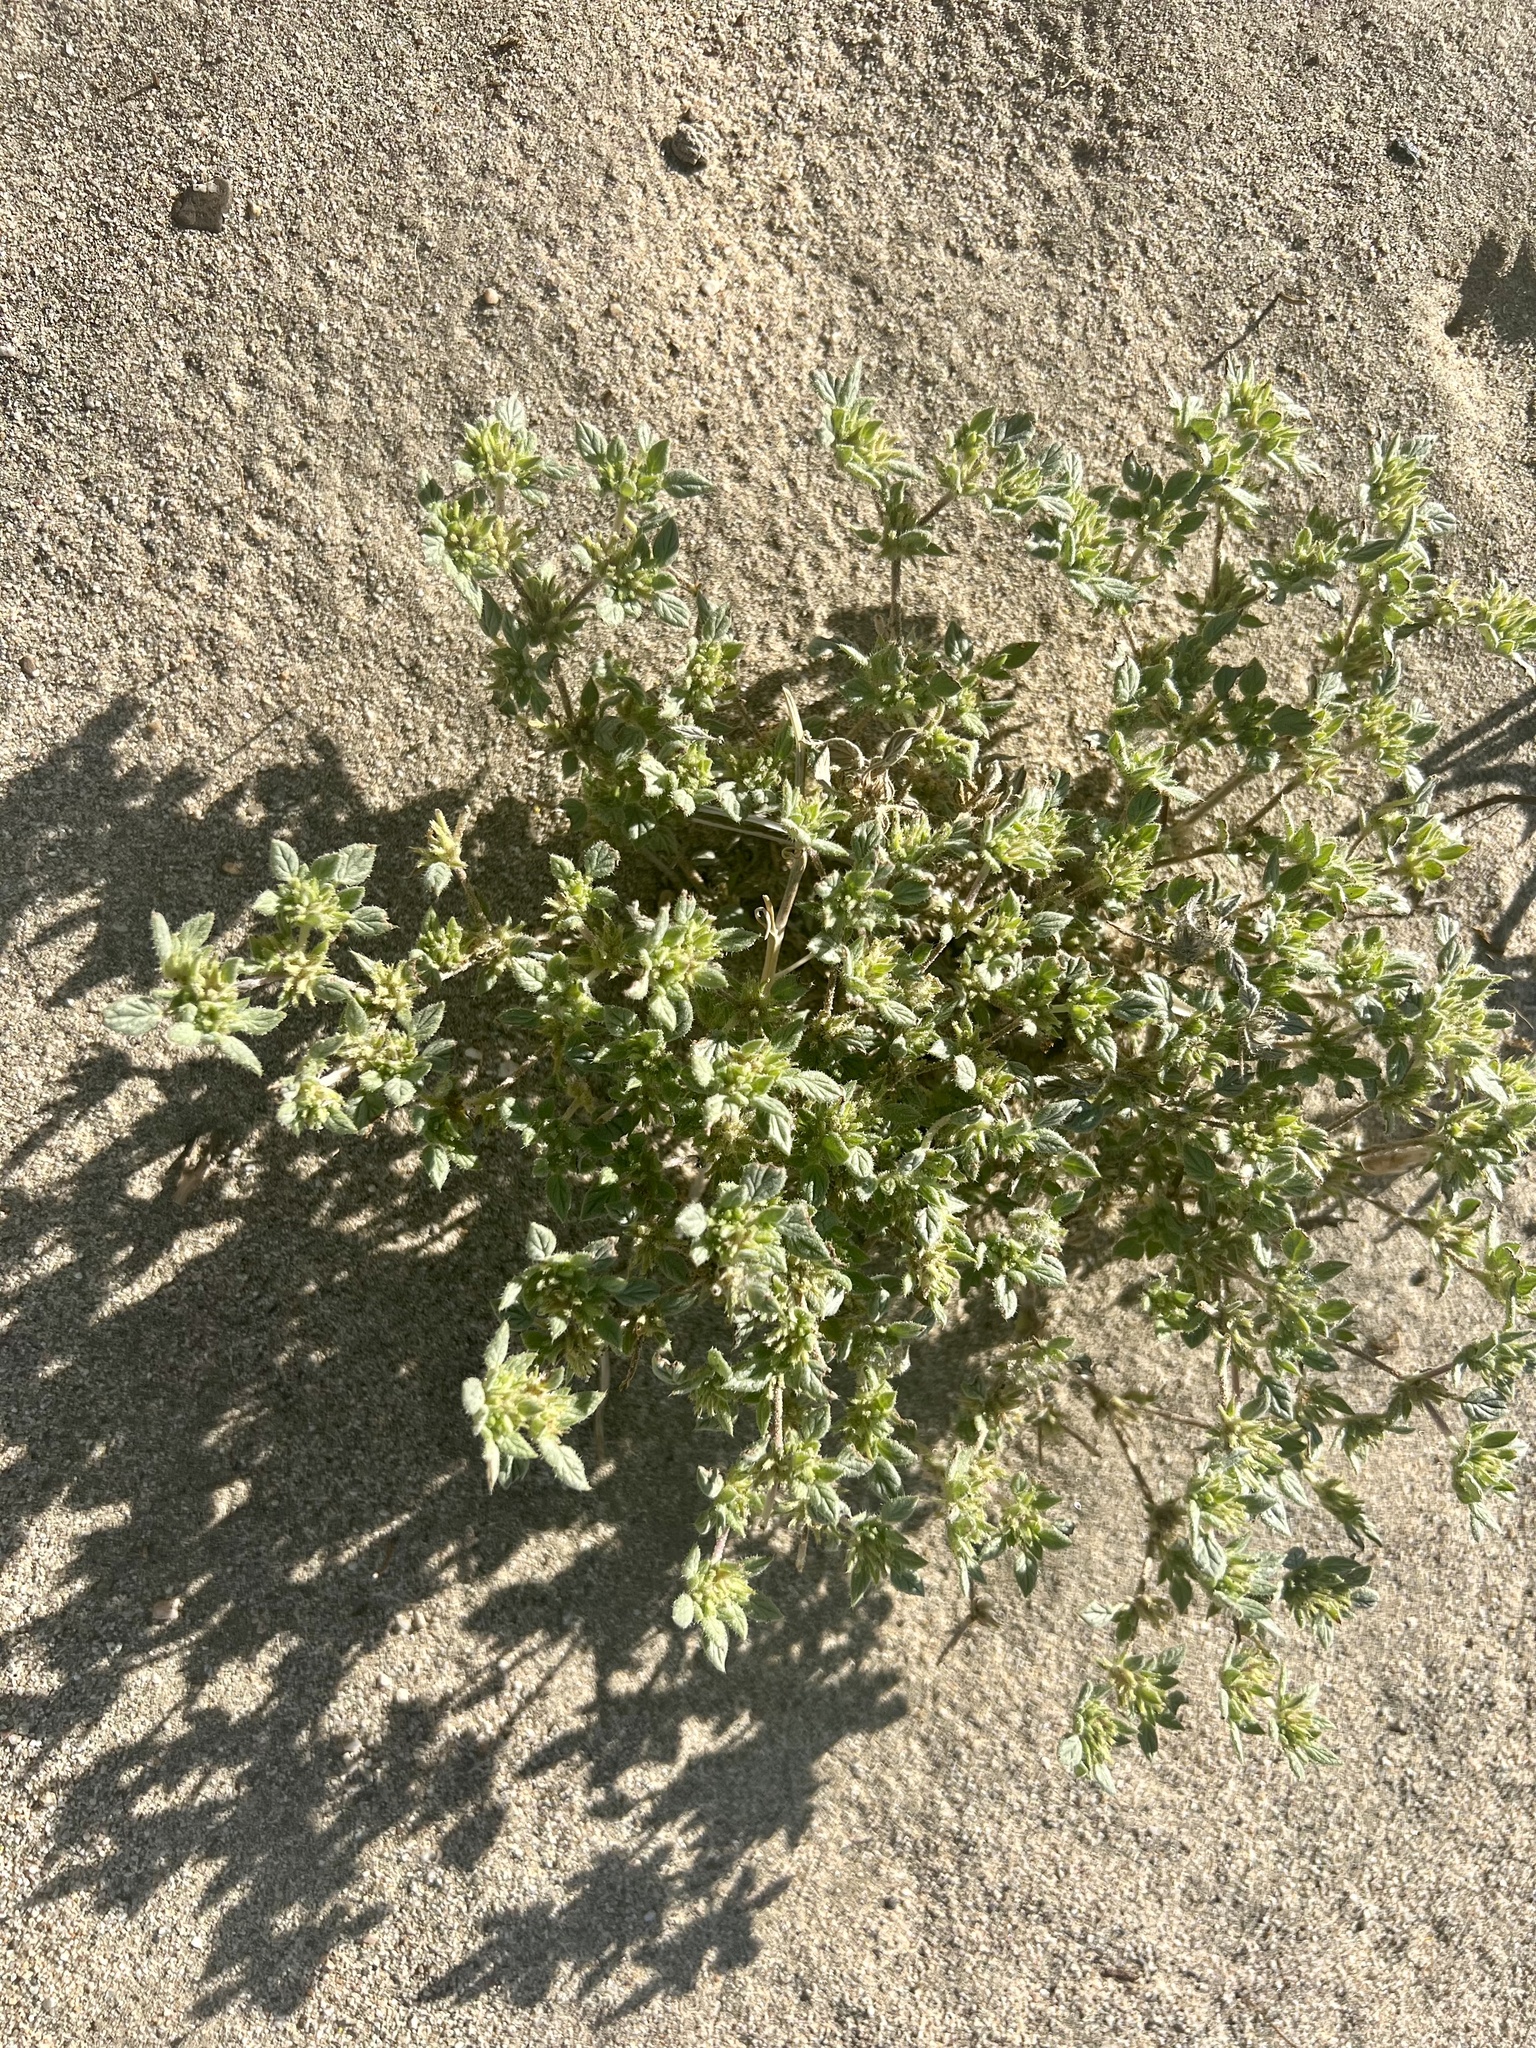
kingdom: Plantae
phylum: Tracheophyta
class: Magnoliopsida
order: Boraginales
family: Ehretiaceae
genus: Tiquilia
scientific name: Tiquilia nuttallii
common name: Rosette tiquilia
